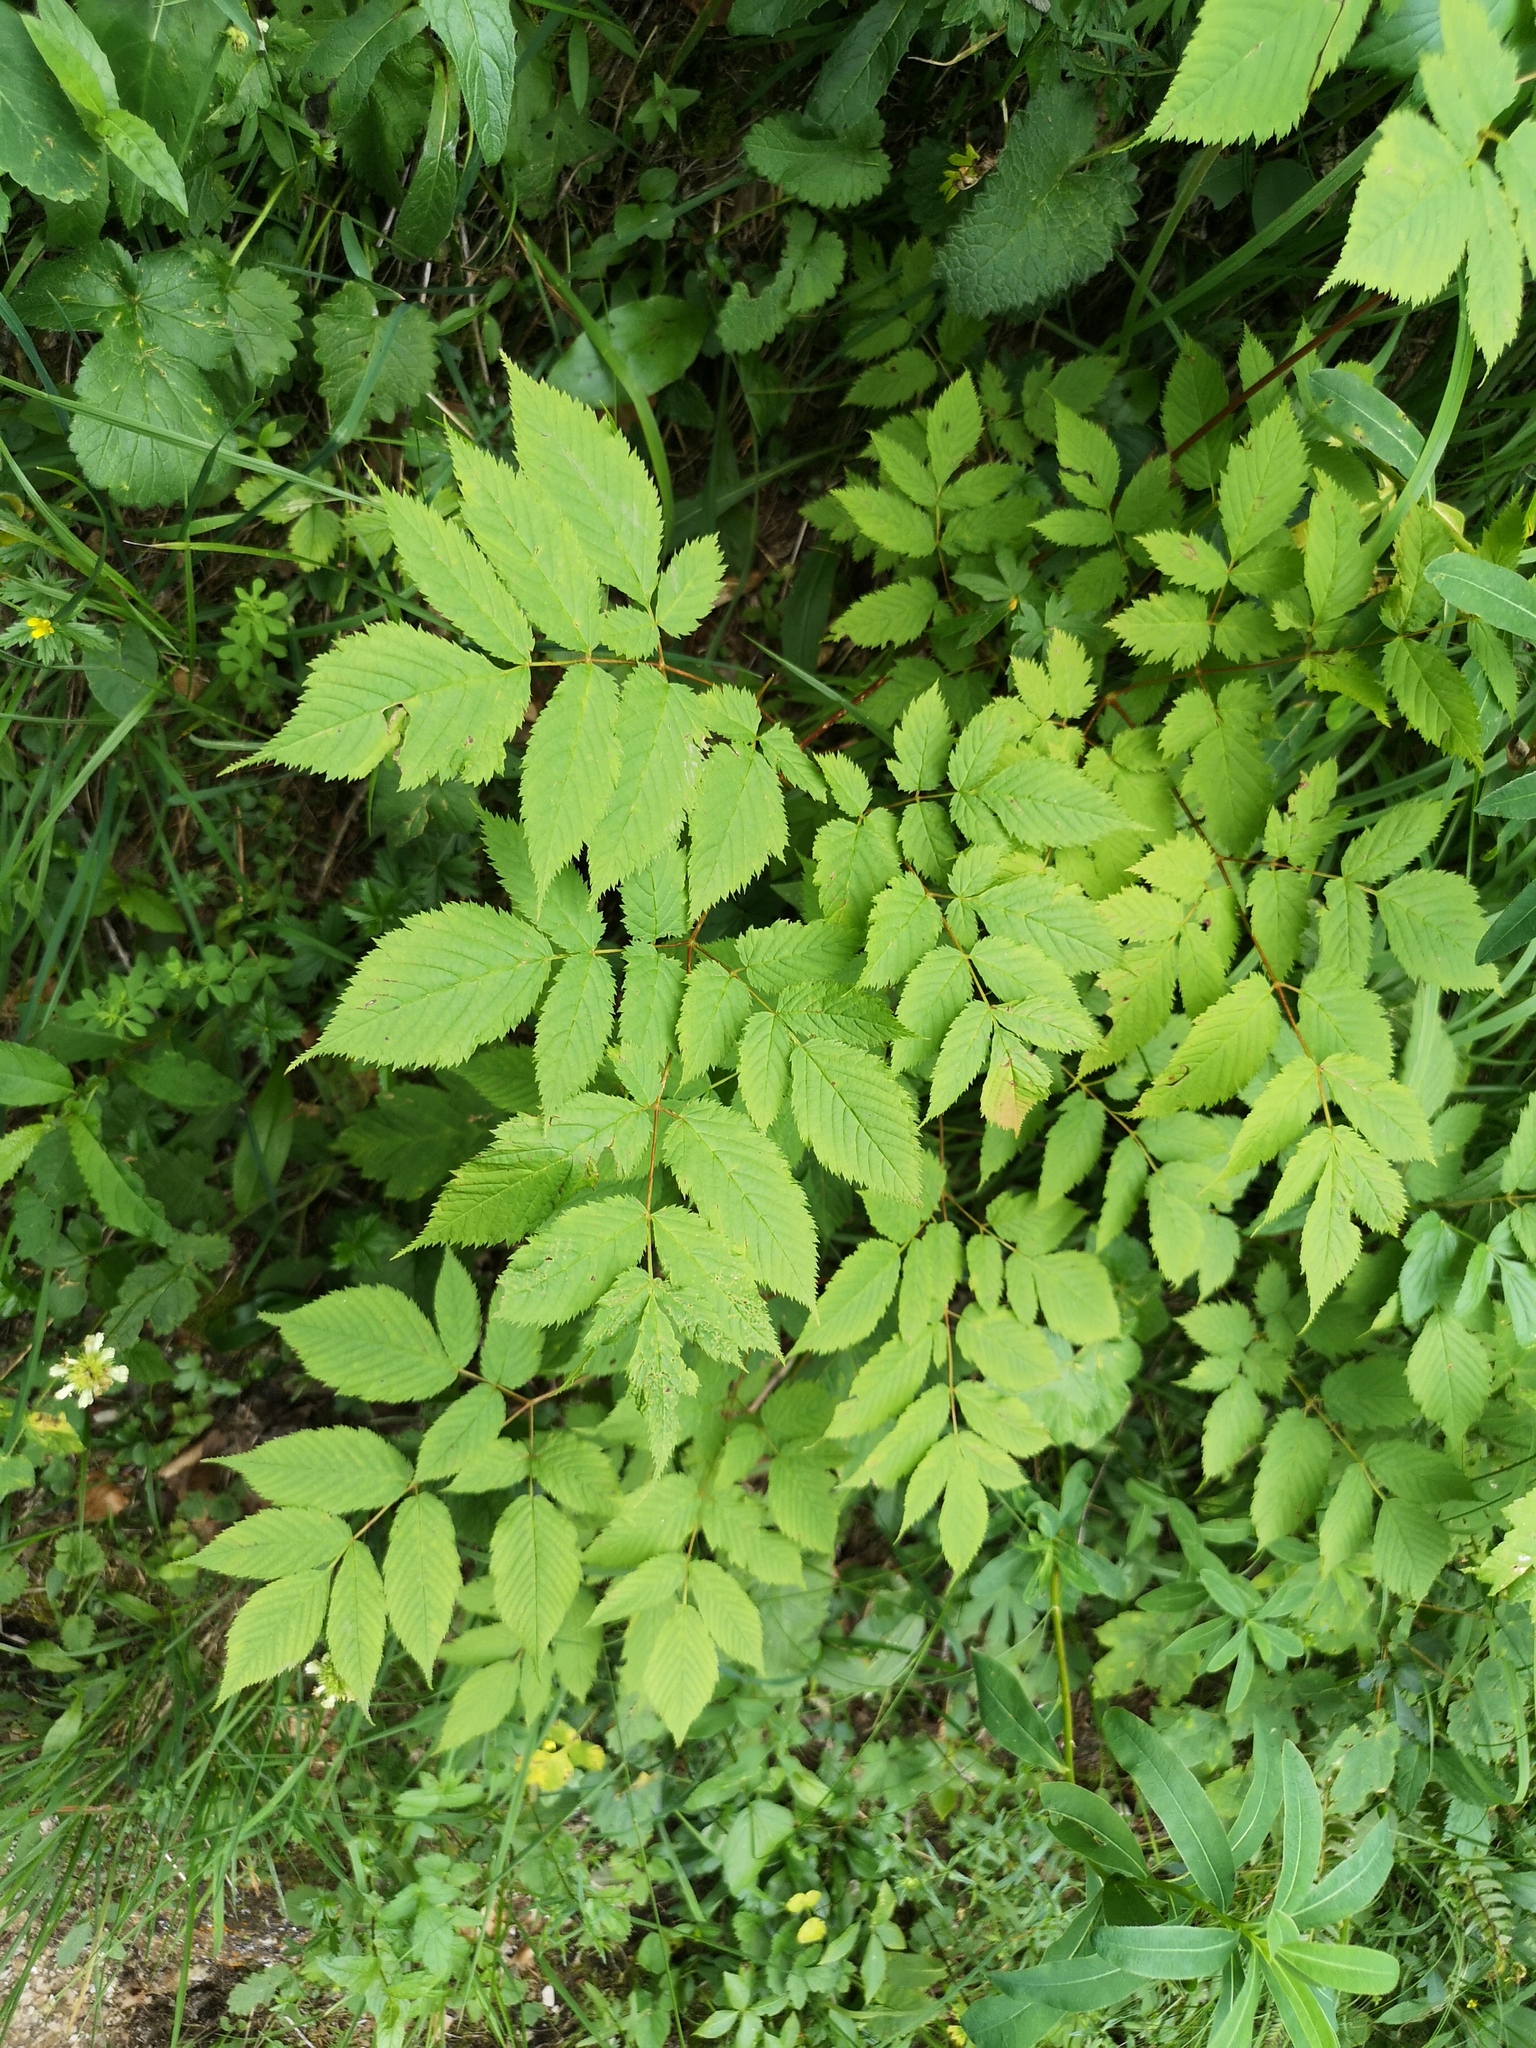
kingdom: Plantae
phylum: Tracheophyta
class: Magnoliopsida
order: Rosales
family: Rosaceae
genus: Aruncus
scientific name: Aruncus dioicus
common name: Buck's-beard
